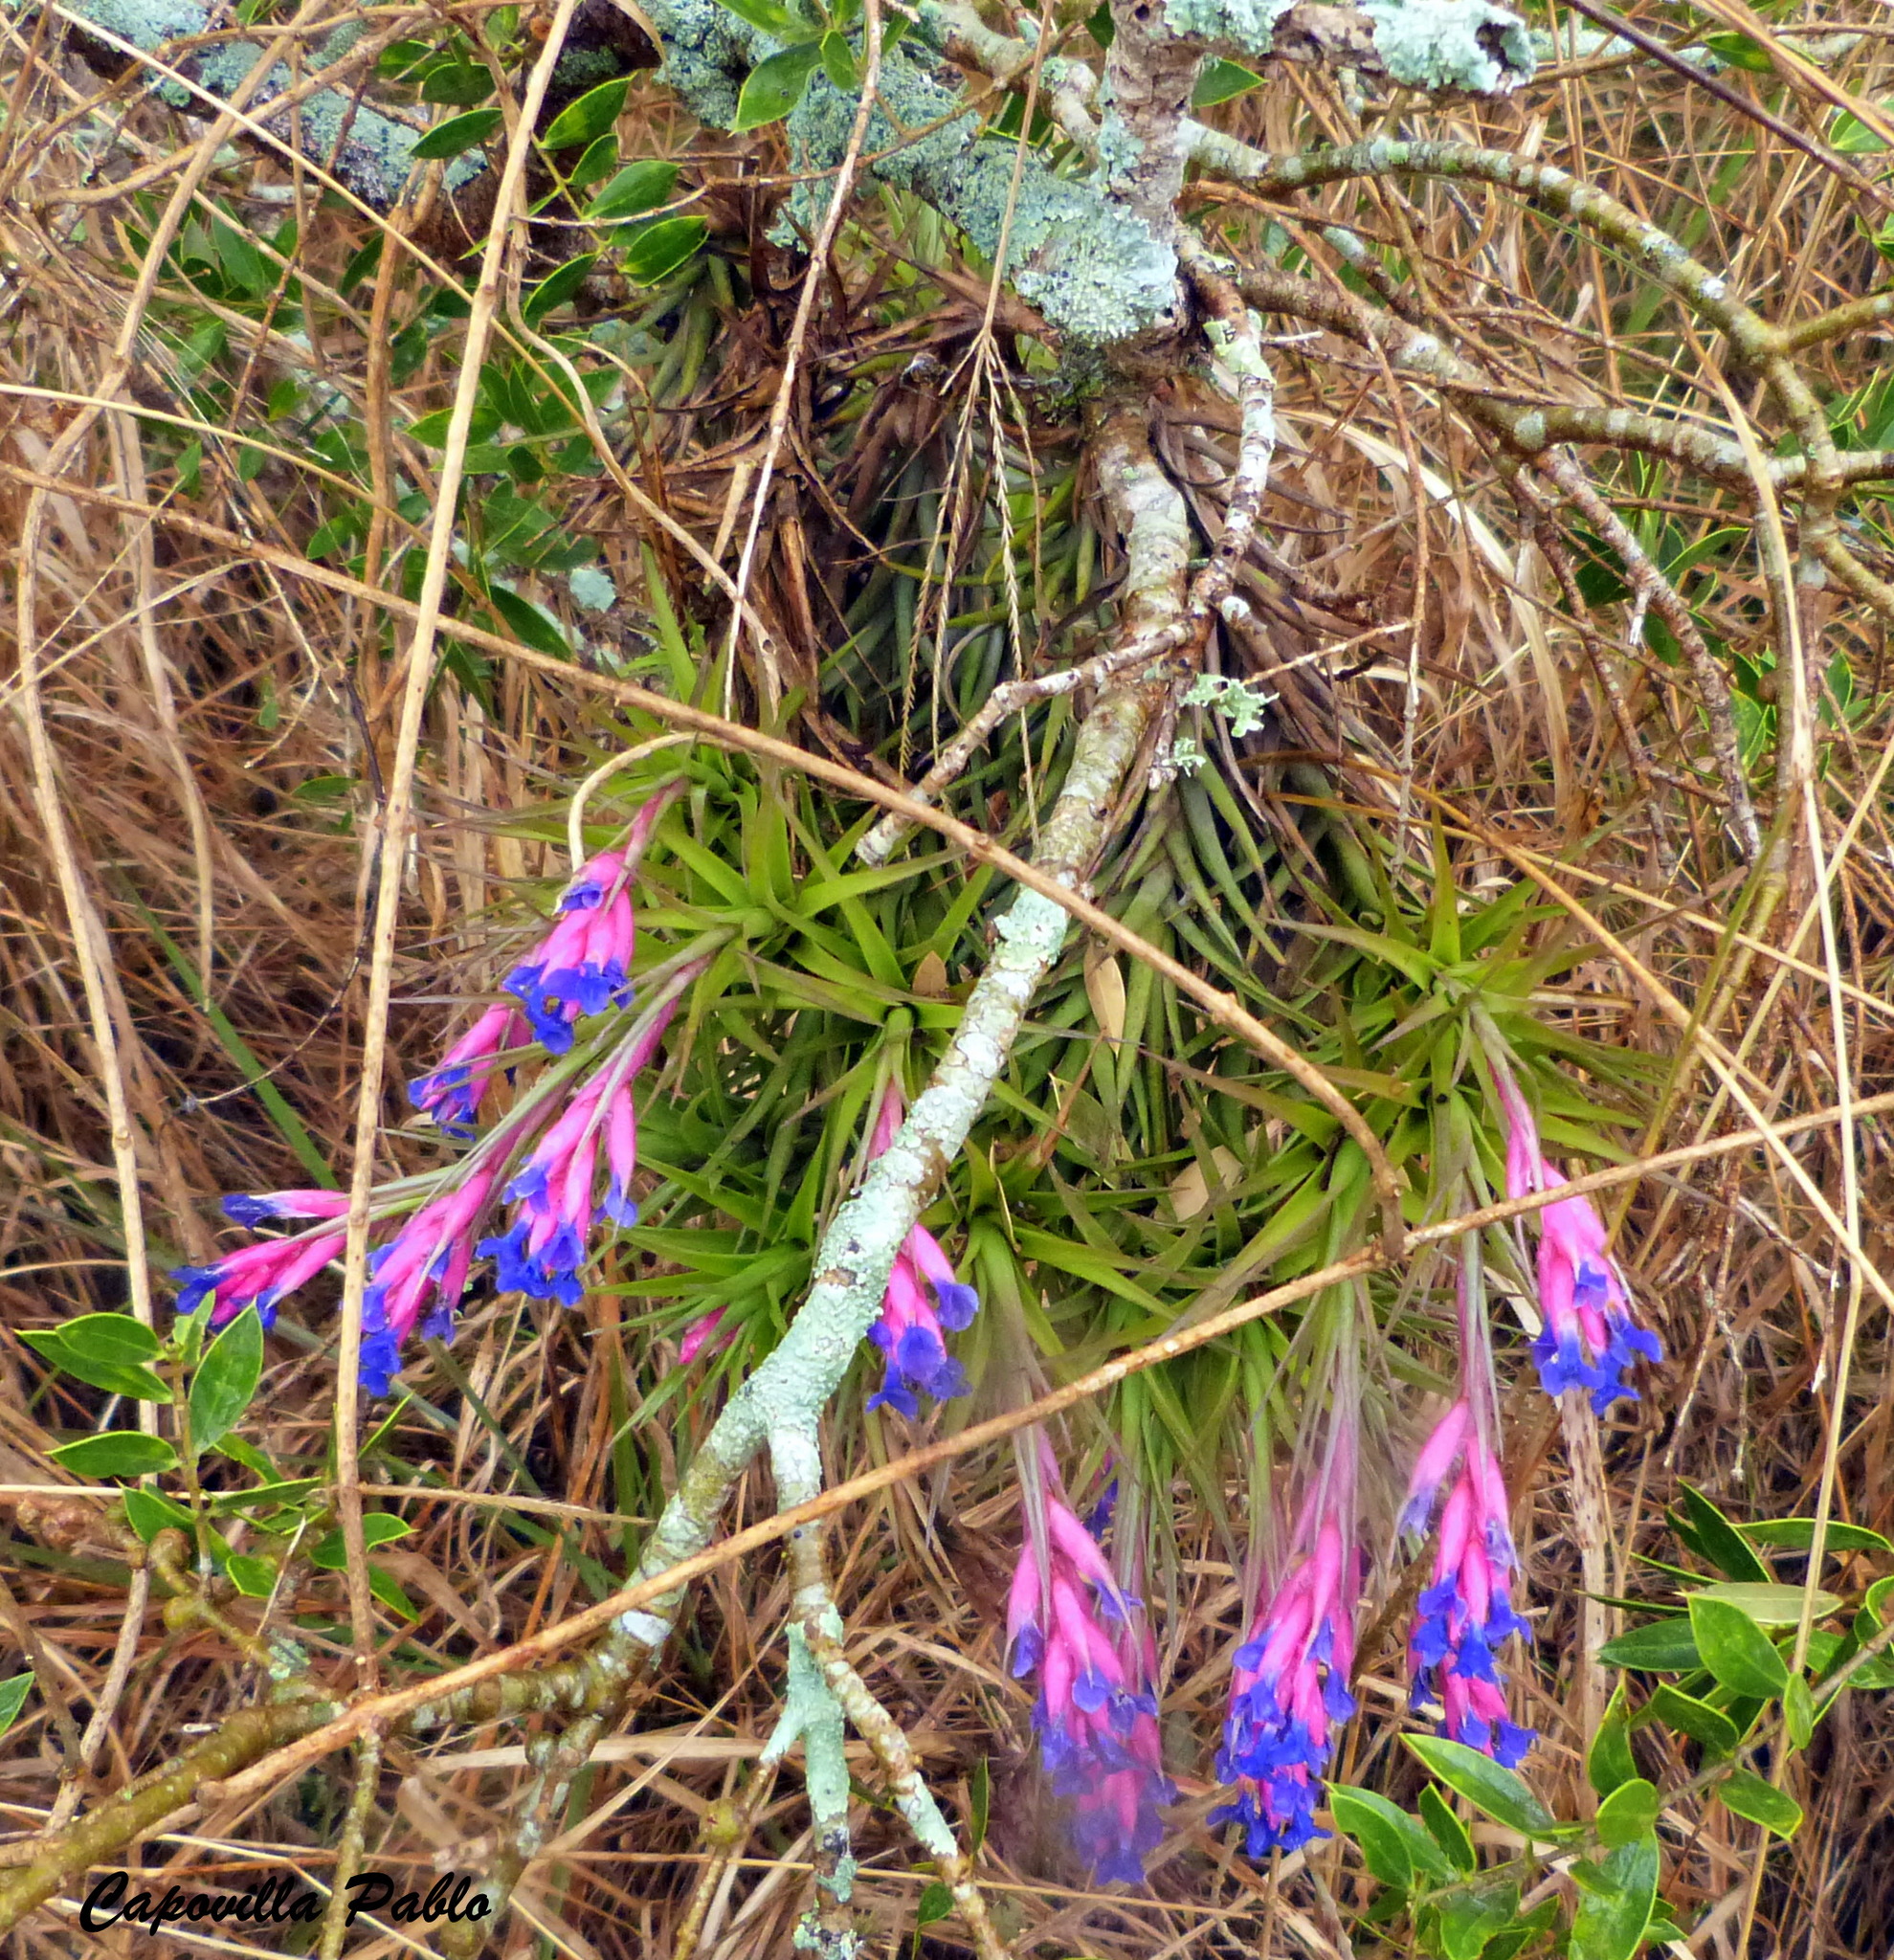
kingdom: Plantae
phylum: Tracheophyta
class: Liliopsida
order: Poales
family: Bromeliaceae
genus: Tillandsia
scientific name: Tillandsia aeranthos
